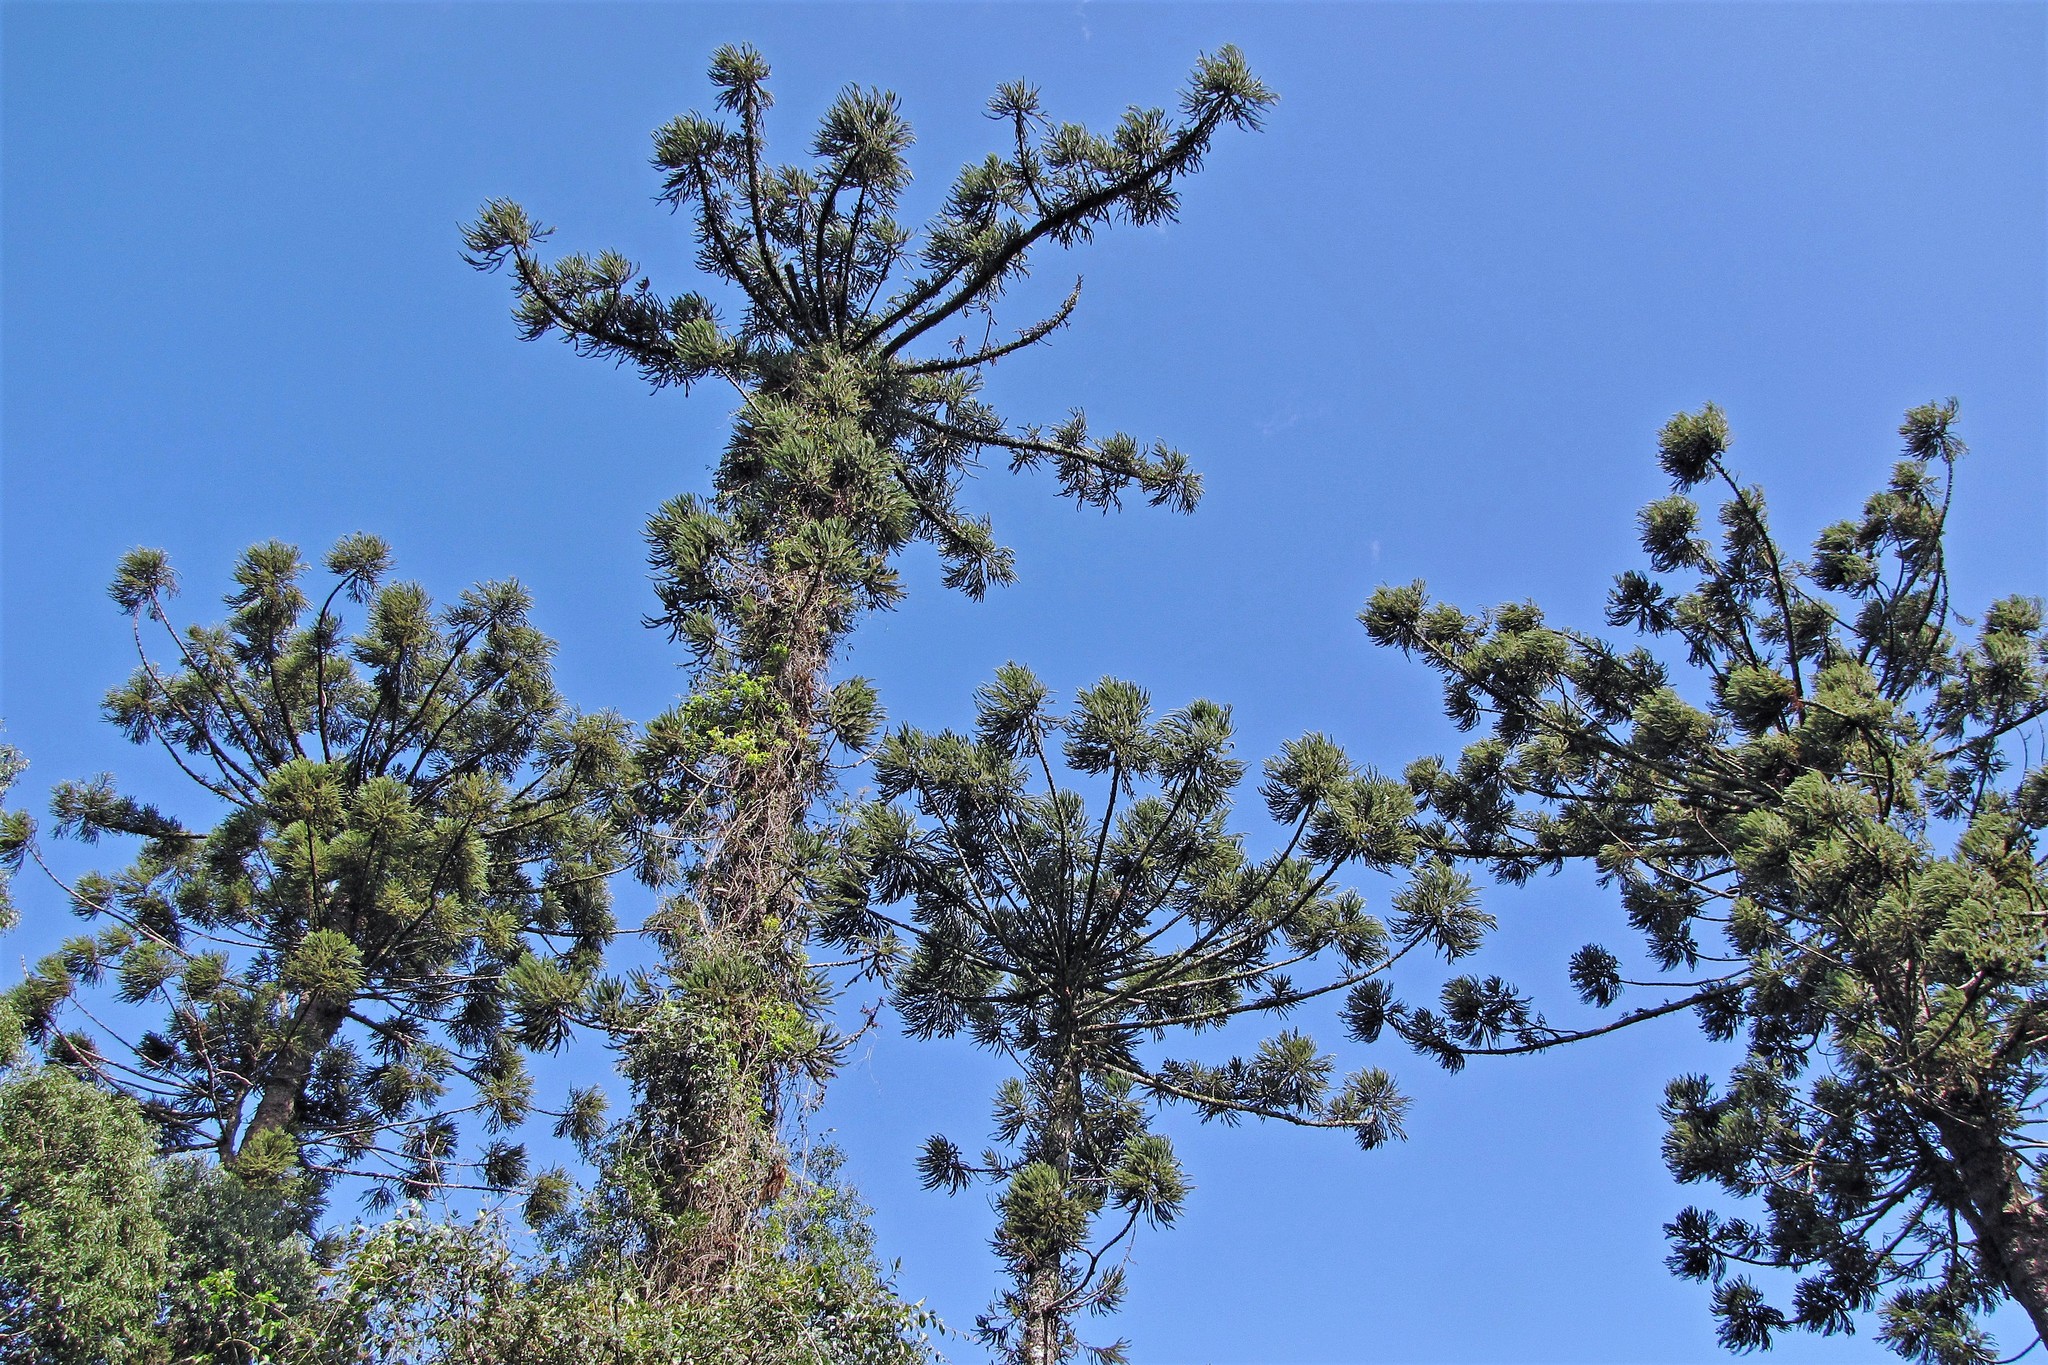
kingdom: Plantae
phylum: Tracheophyta
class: Pinopsida
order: Pinales
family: Araucariaceae
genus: Araucaria
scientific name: Araucaria angustifolia
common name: Candelabra tree
